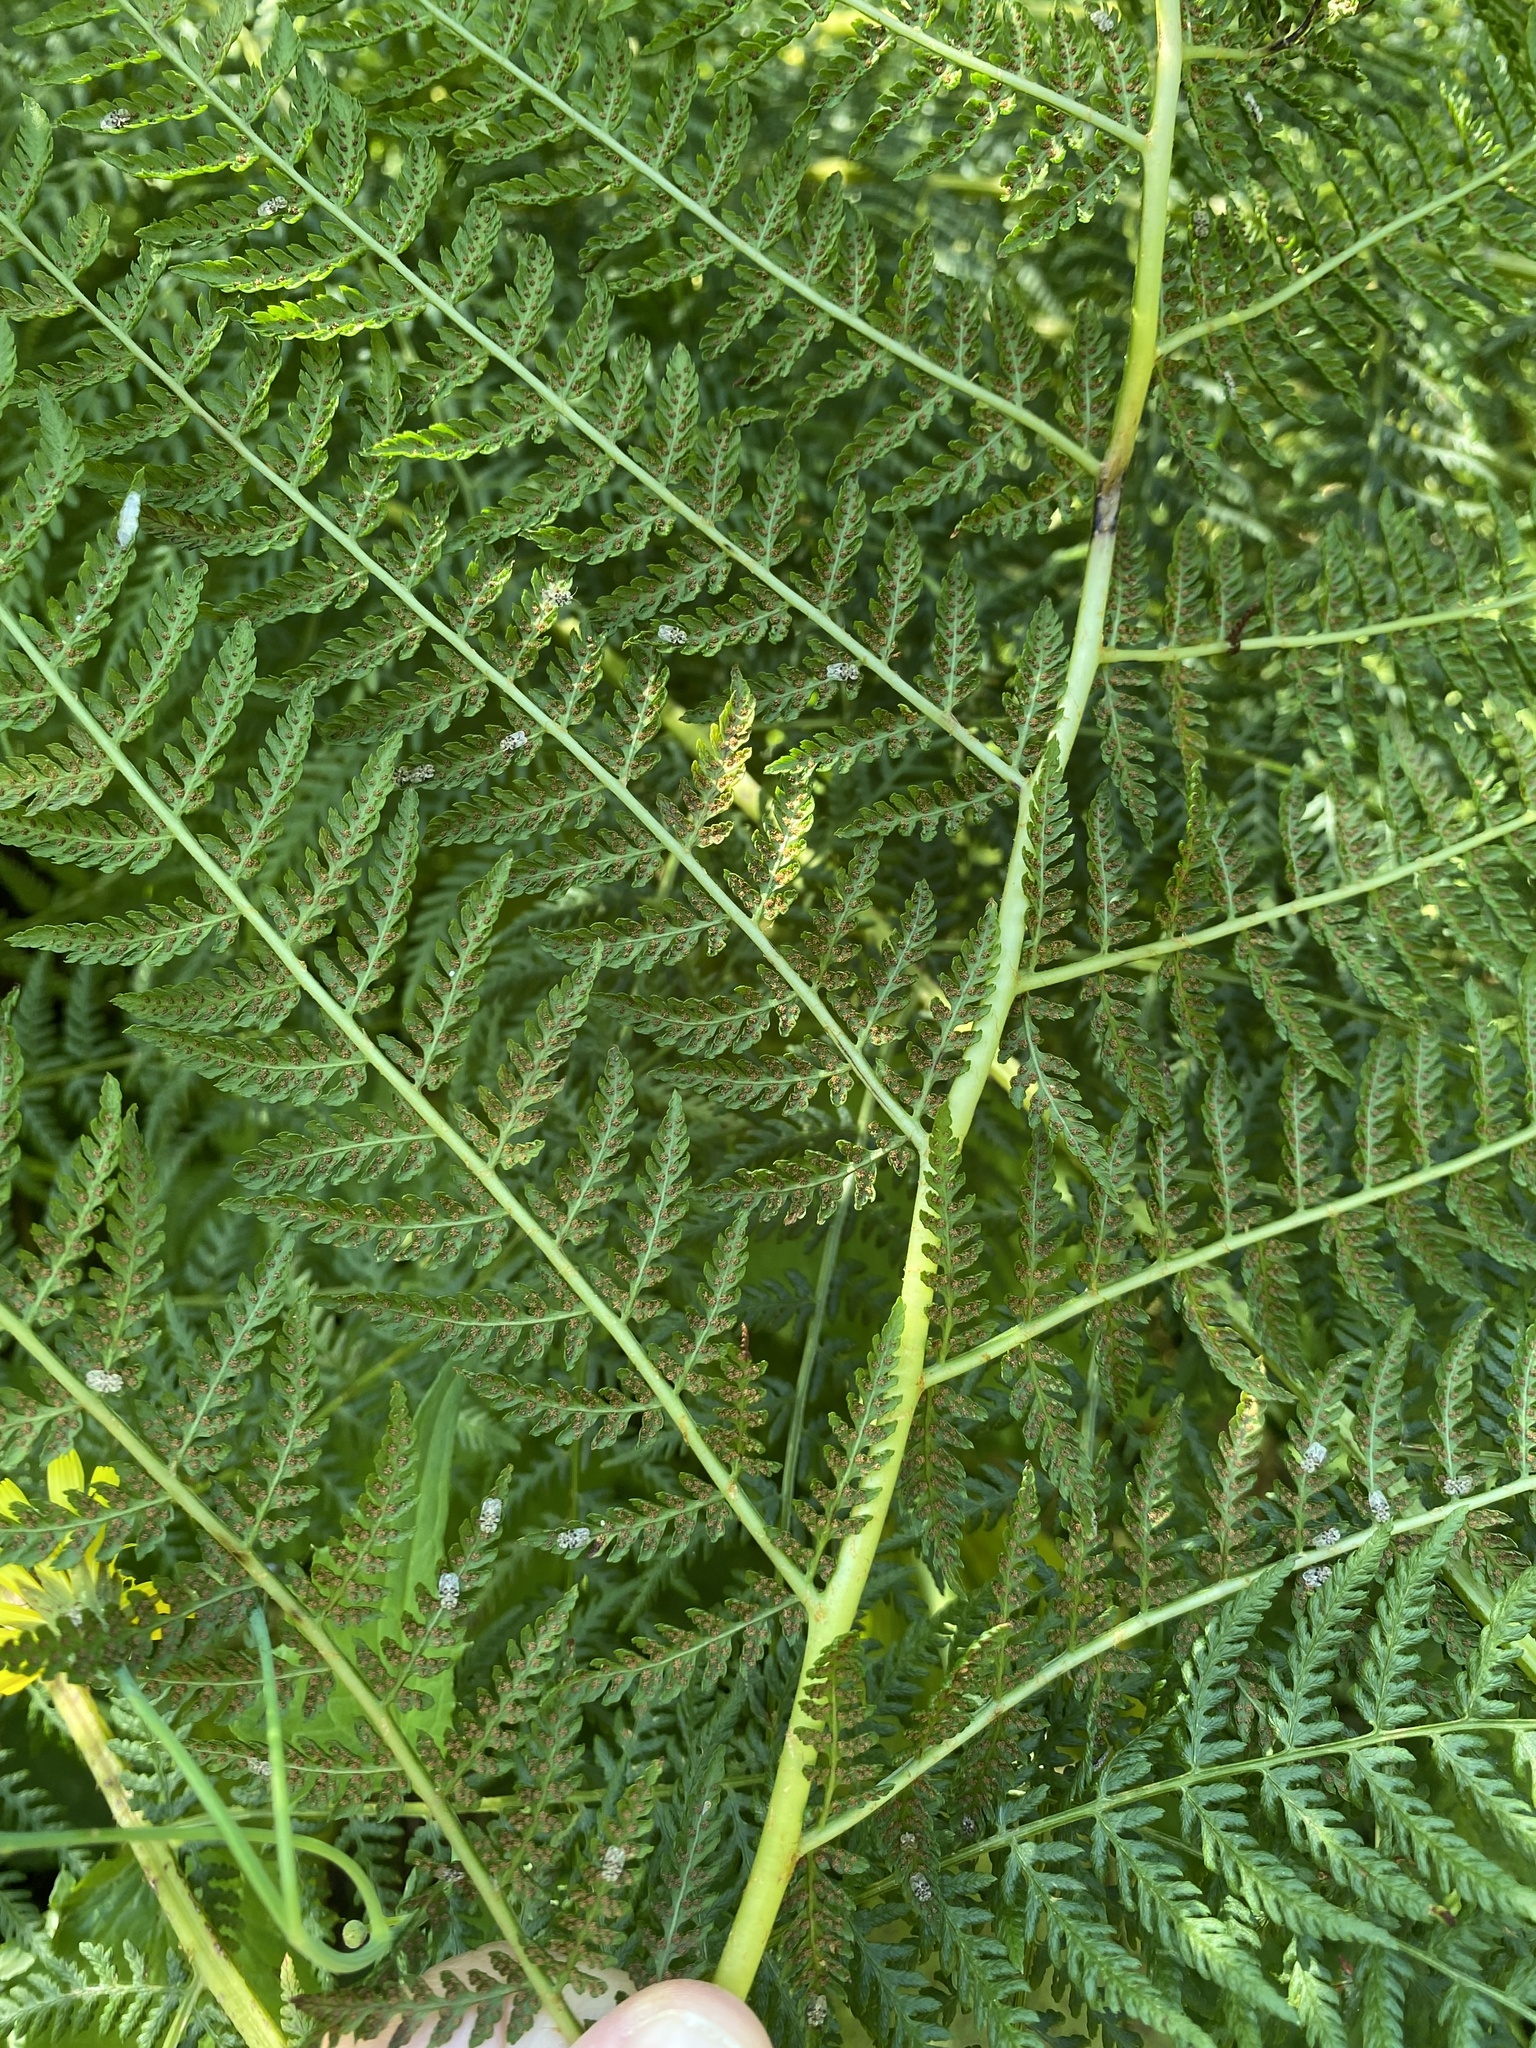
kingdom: Plantae
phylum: Tracheophyta
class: Polypodiopsida
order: Polypodiales
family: Athyriaceae
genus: Pseudathyrium
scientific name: Pseudathyrium alpestre
